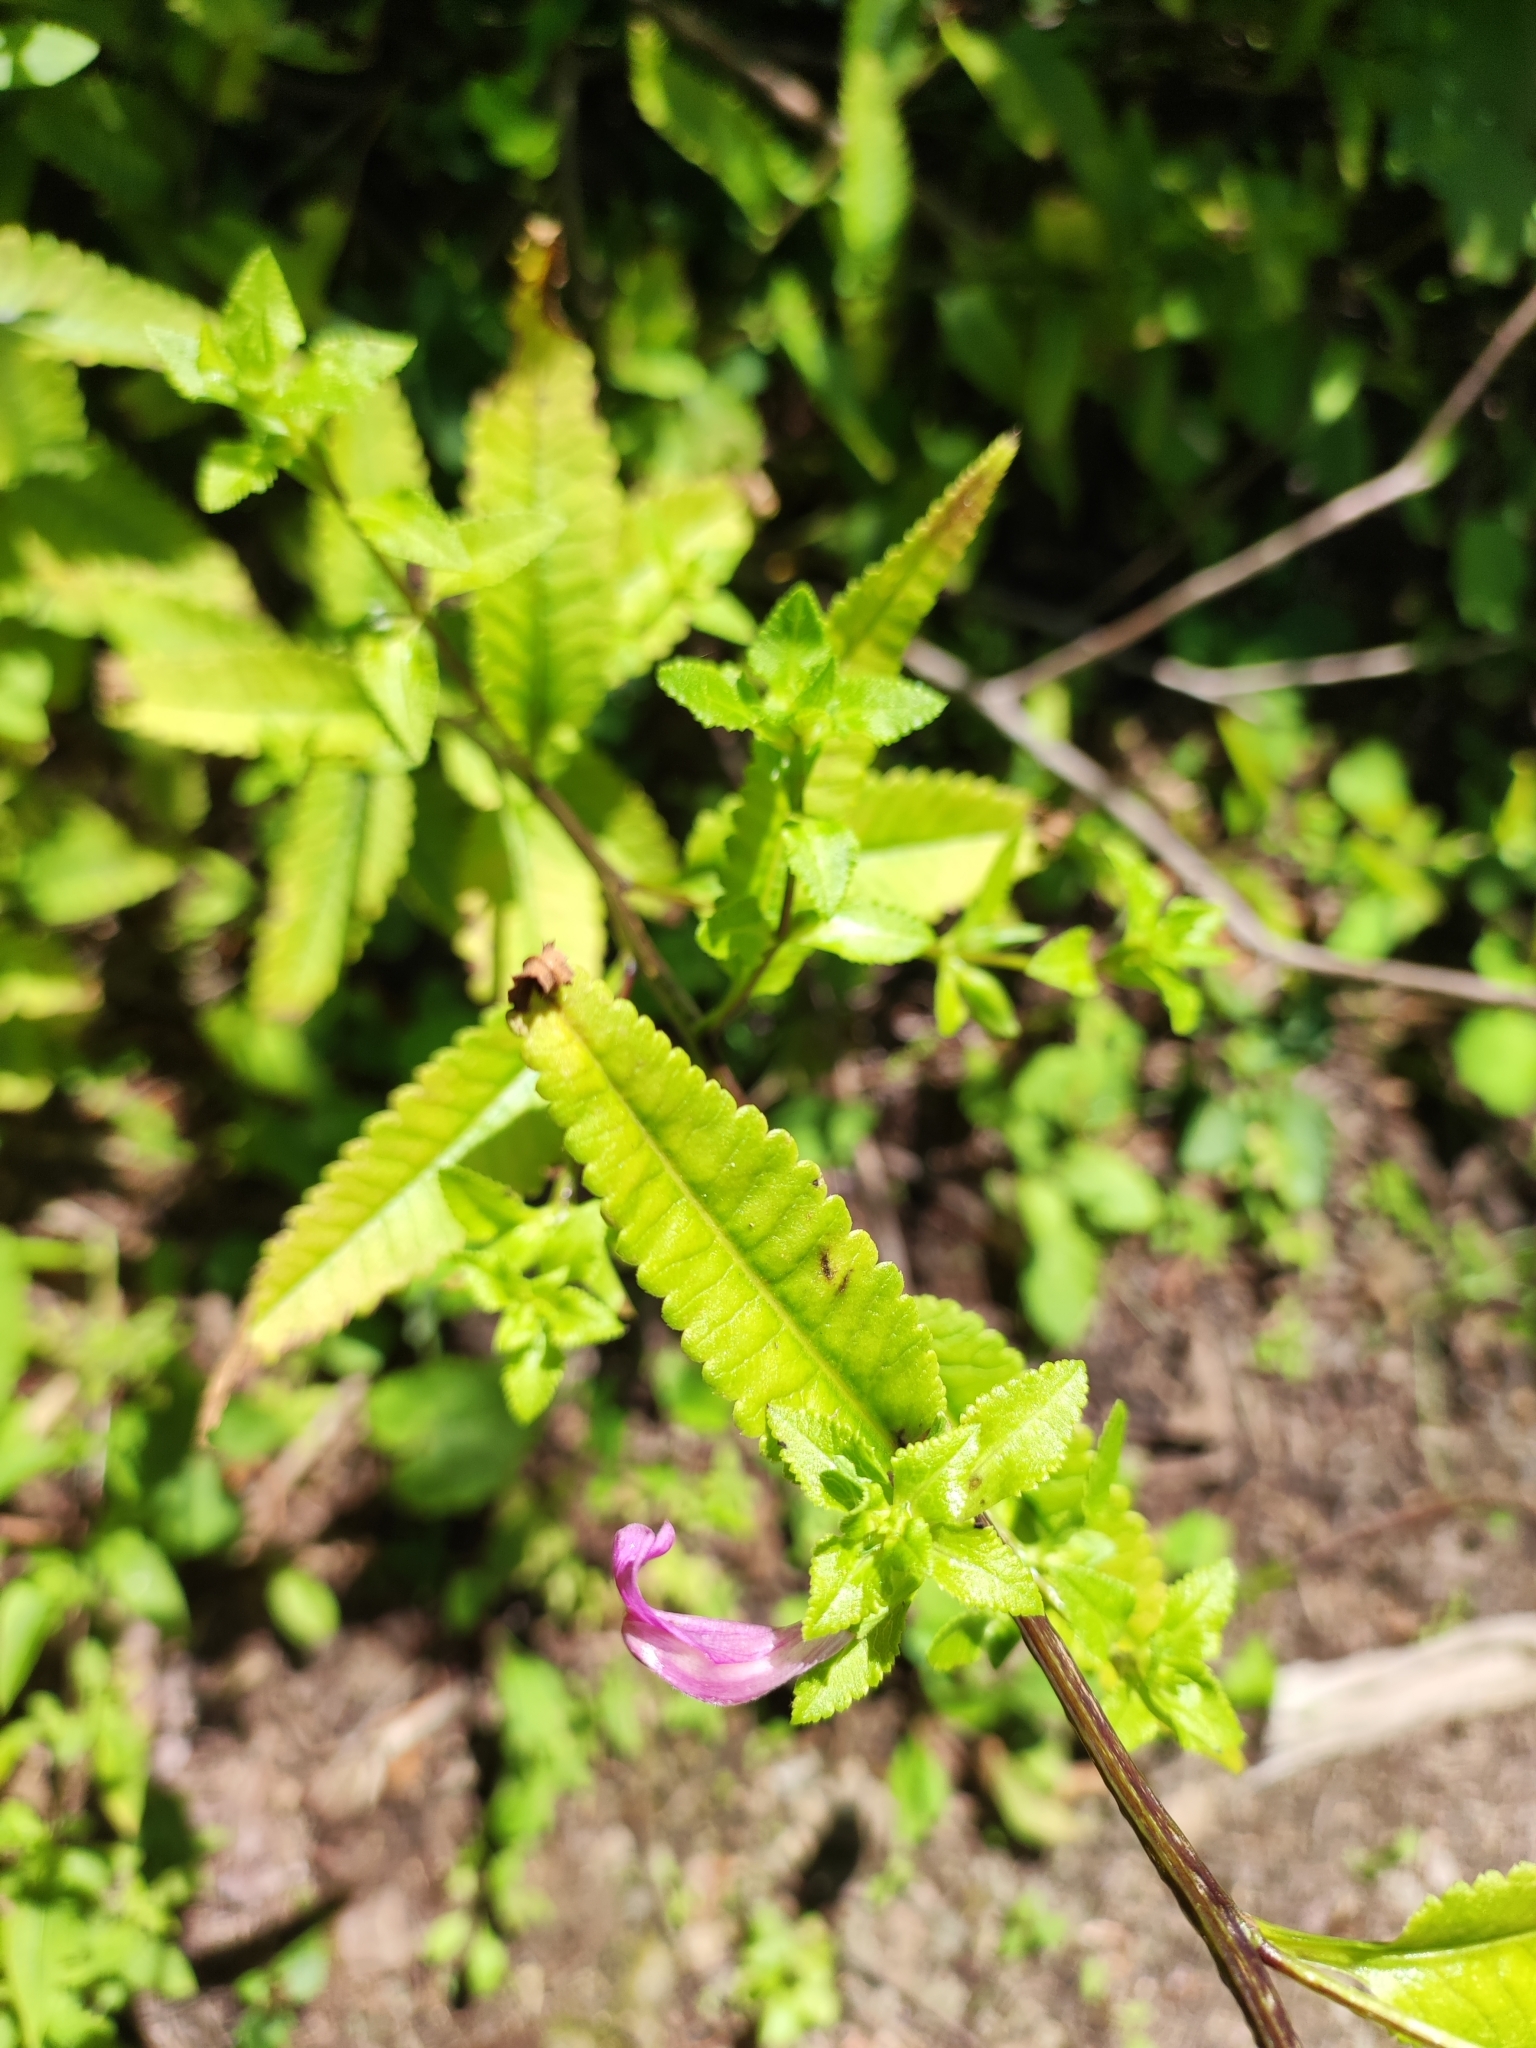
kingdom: Plantae
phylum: Tracheophyta
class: Magnoliopsida
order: Lamiales
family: Orobanchaceae
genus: Pedicularis
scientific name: Pedicularis resupinata
